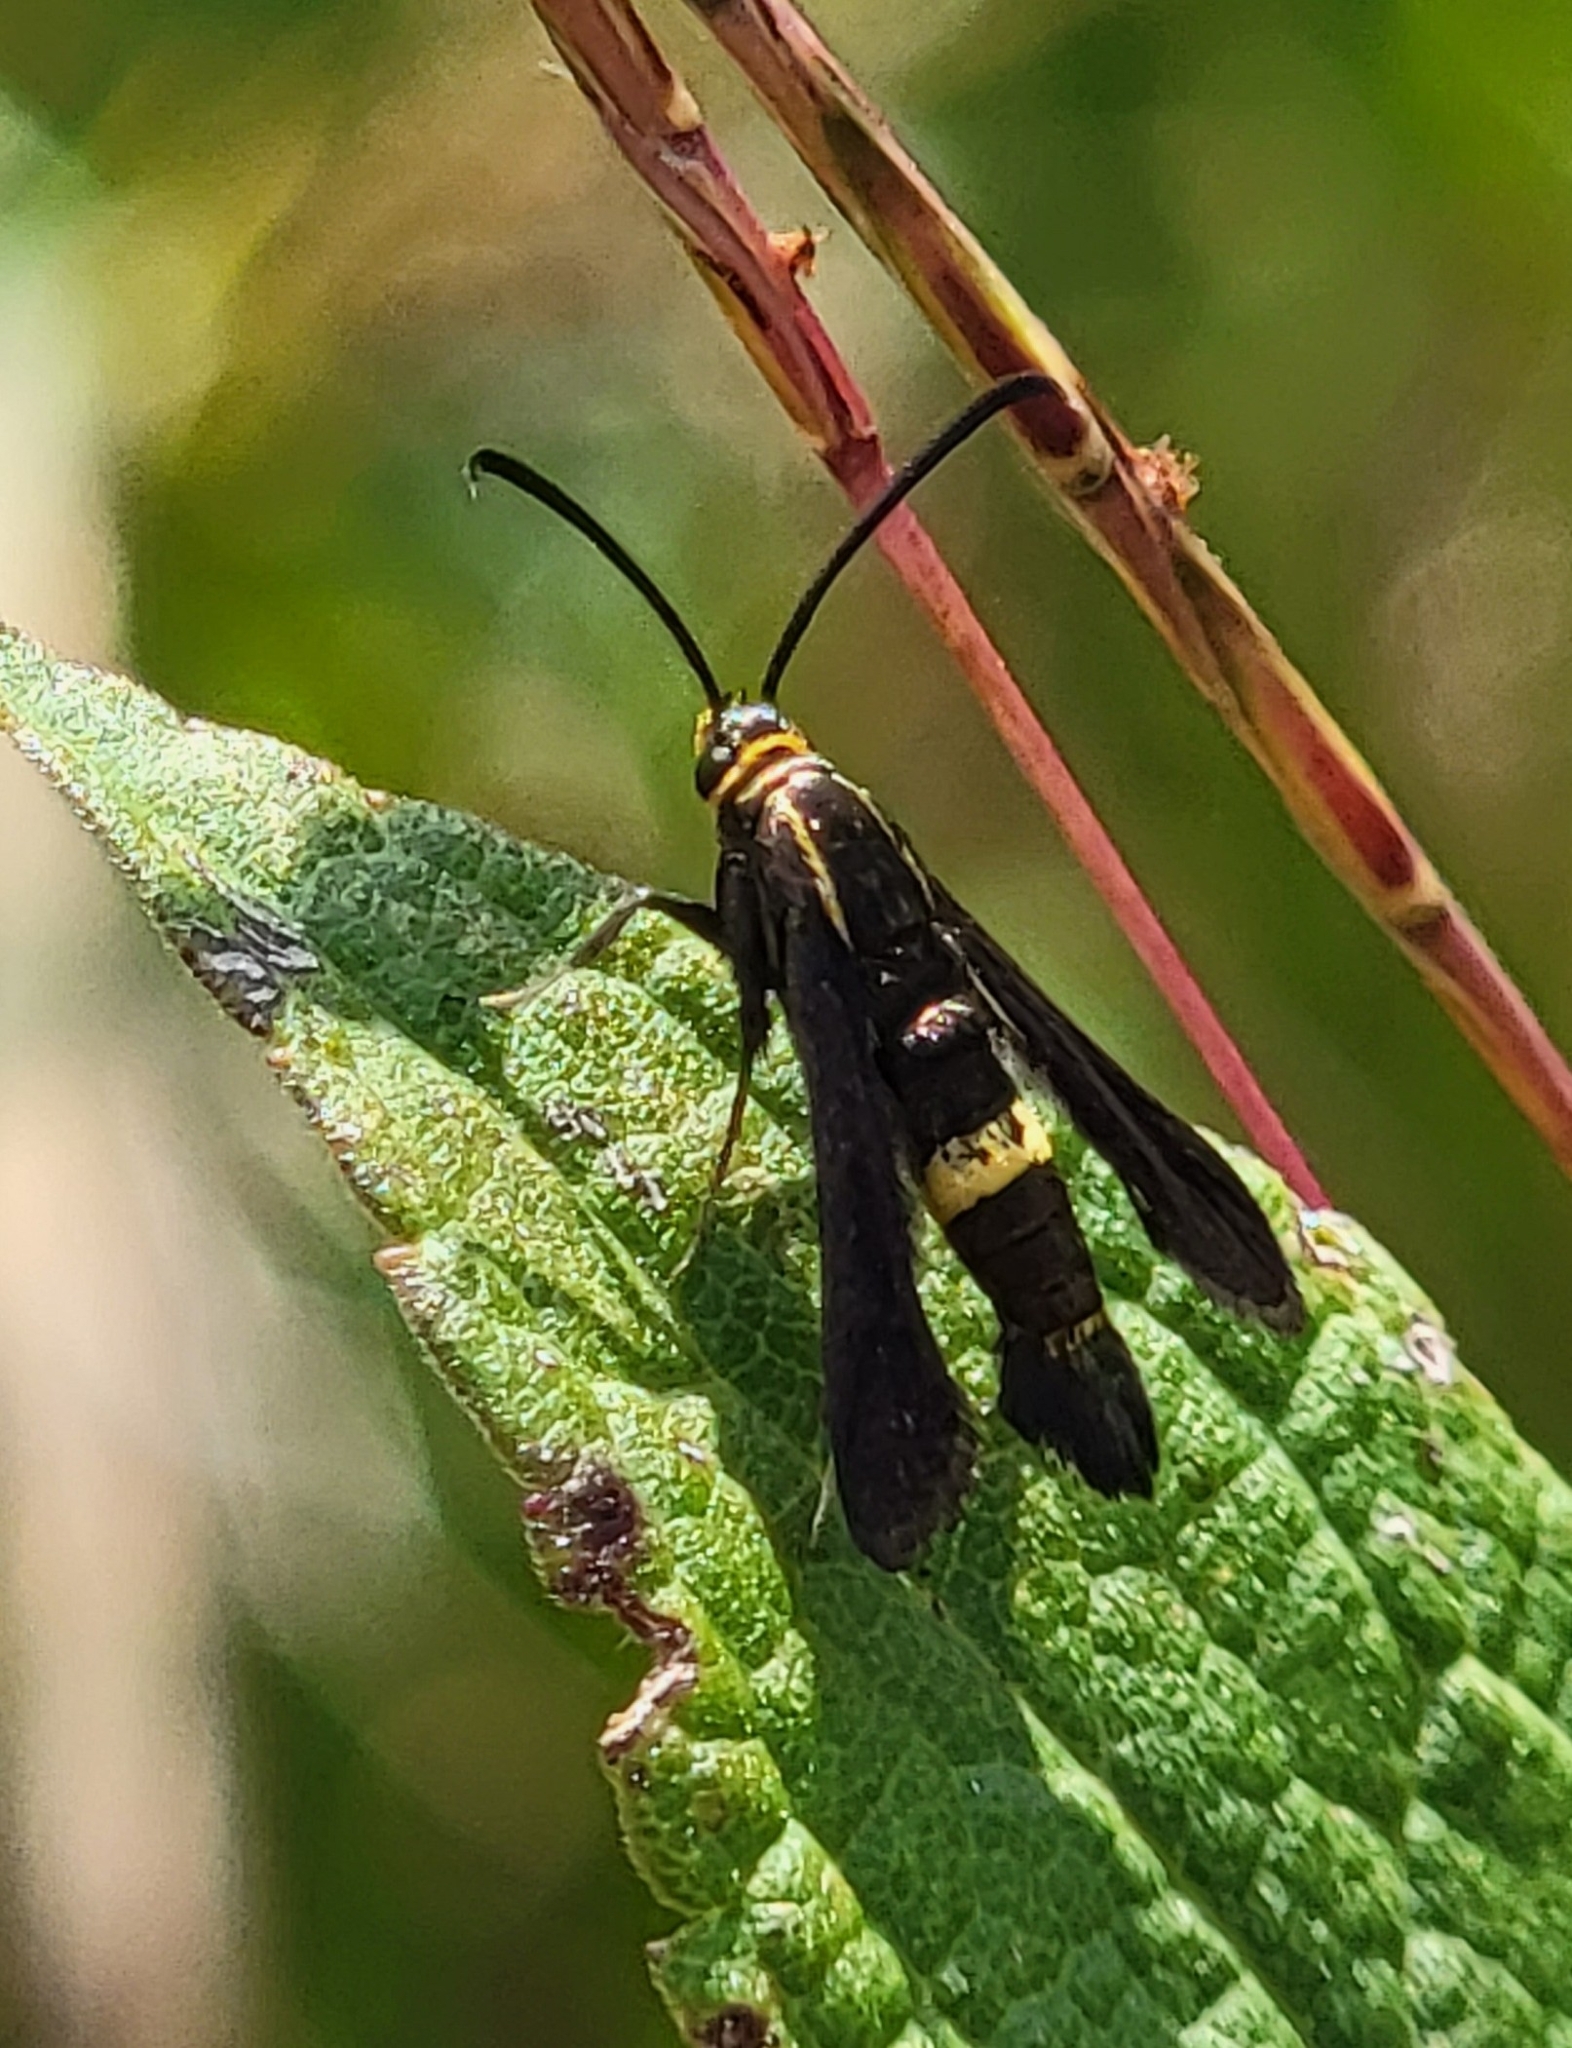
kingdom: Animalia
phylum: Arthropoda
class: Insecta
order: Lepidoptera
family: Sesiidae
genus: Carmenta
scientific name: Carmenta pyralidiformis
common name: Boneset borer moth
